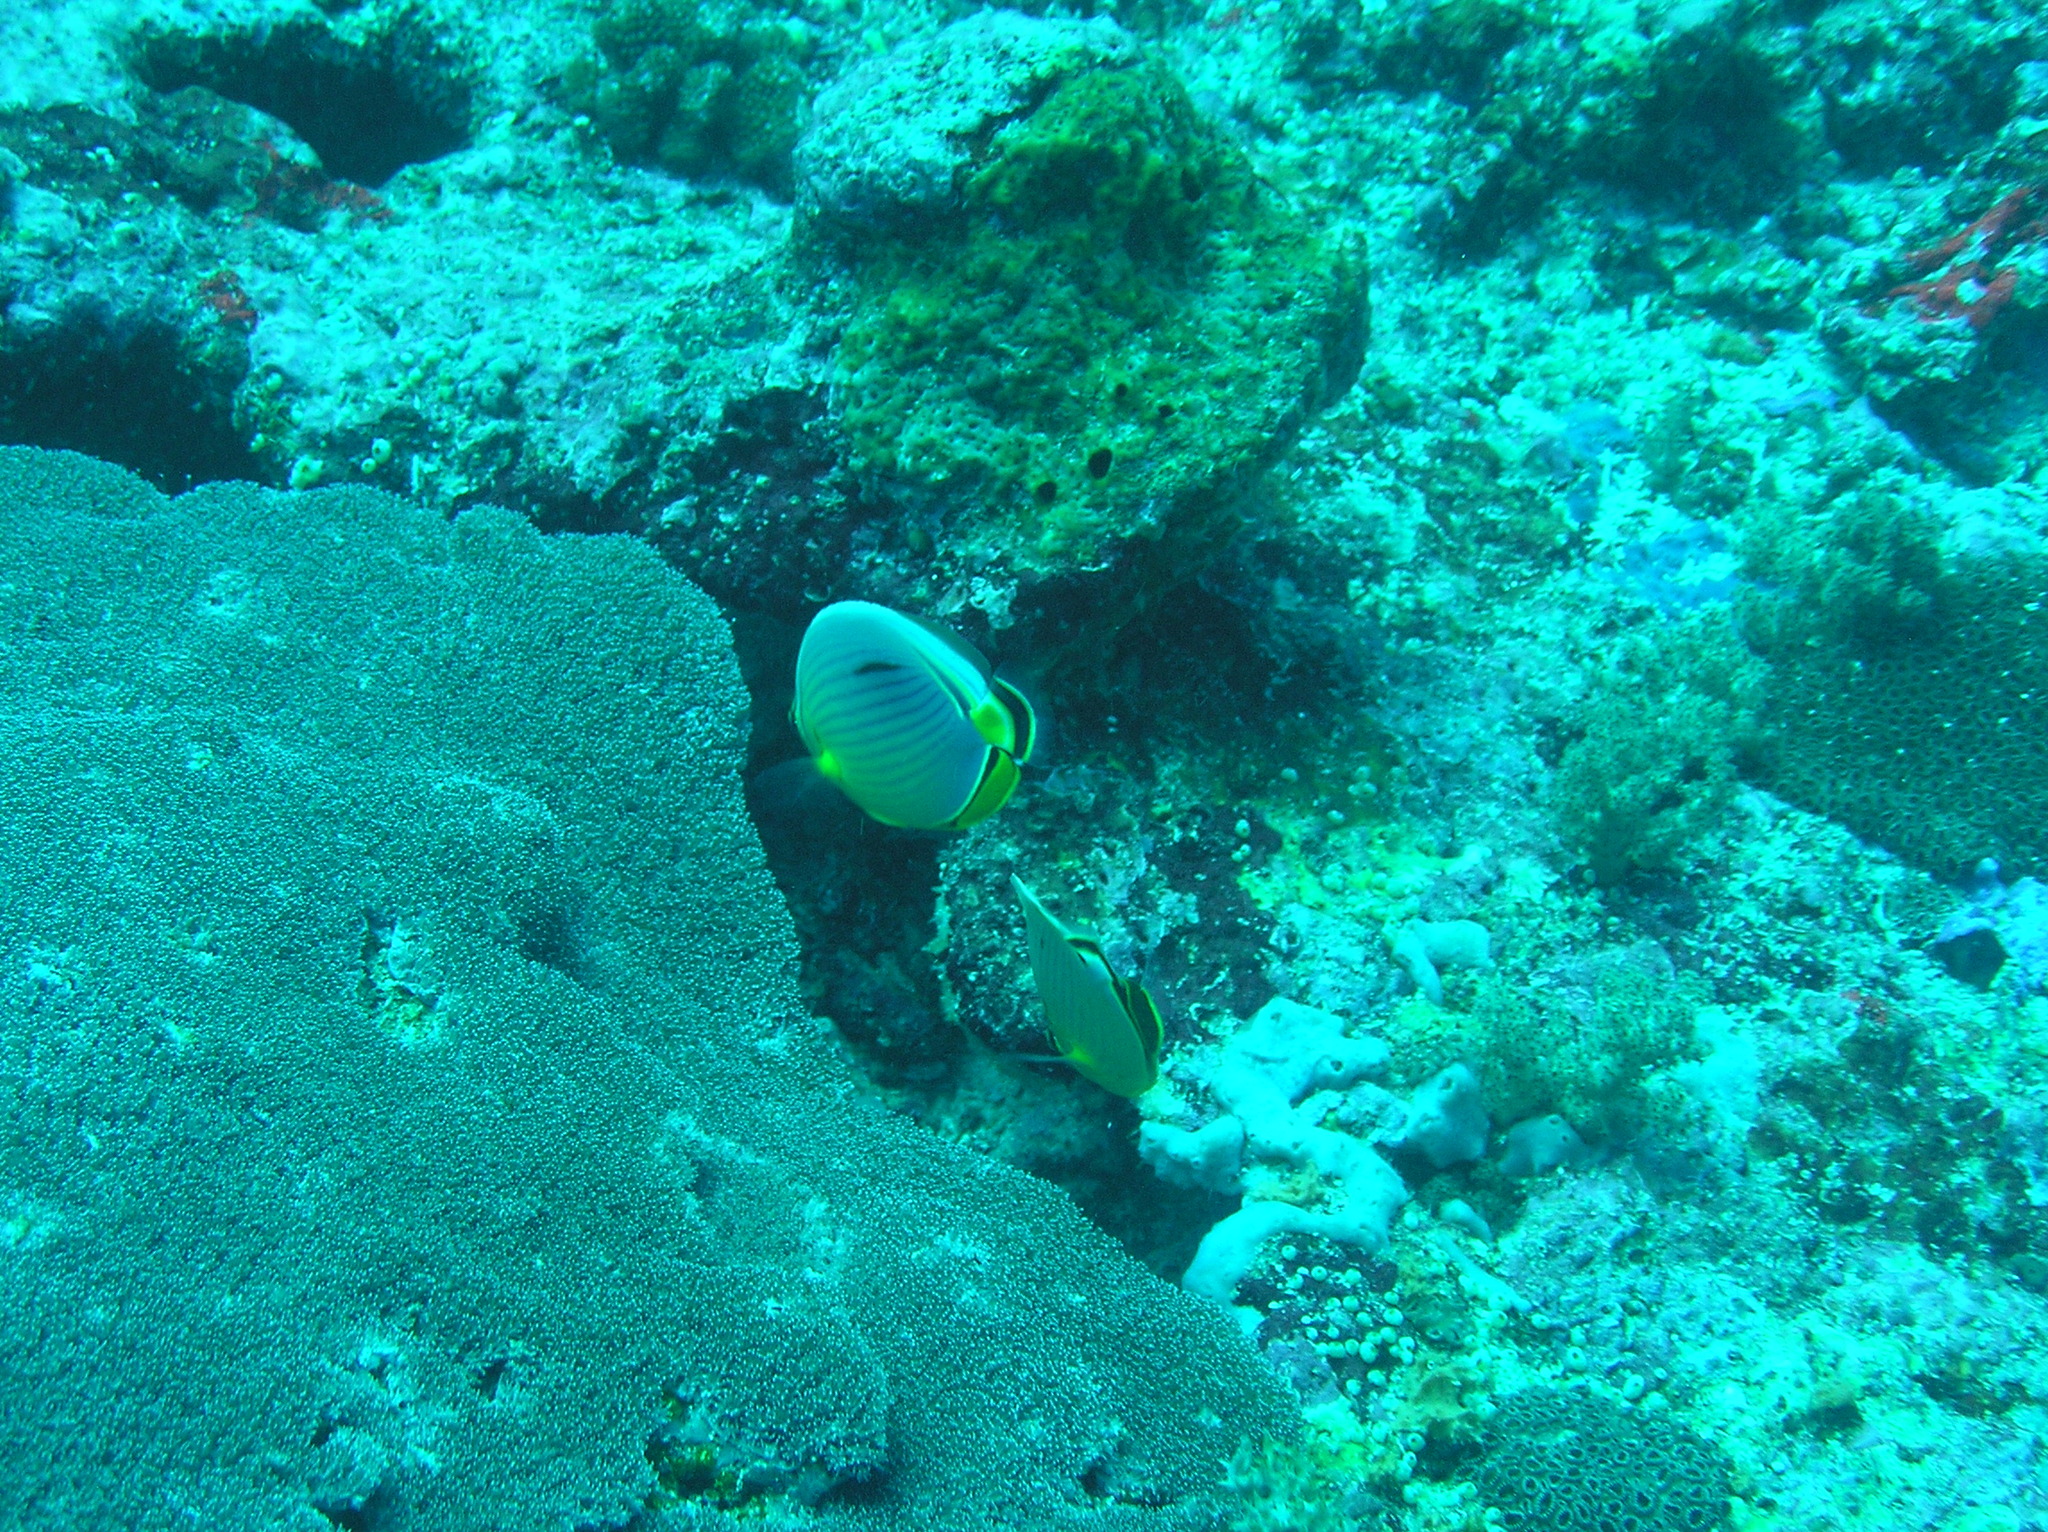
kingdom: Animalia
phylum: Chordata
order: Perciformes
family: Chaetodontidae
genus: Chaetodon
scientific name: Chaetodon trifasciatus
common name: Redfin butterflyfish
